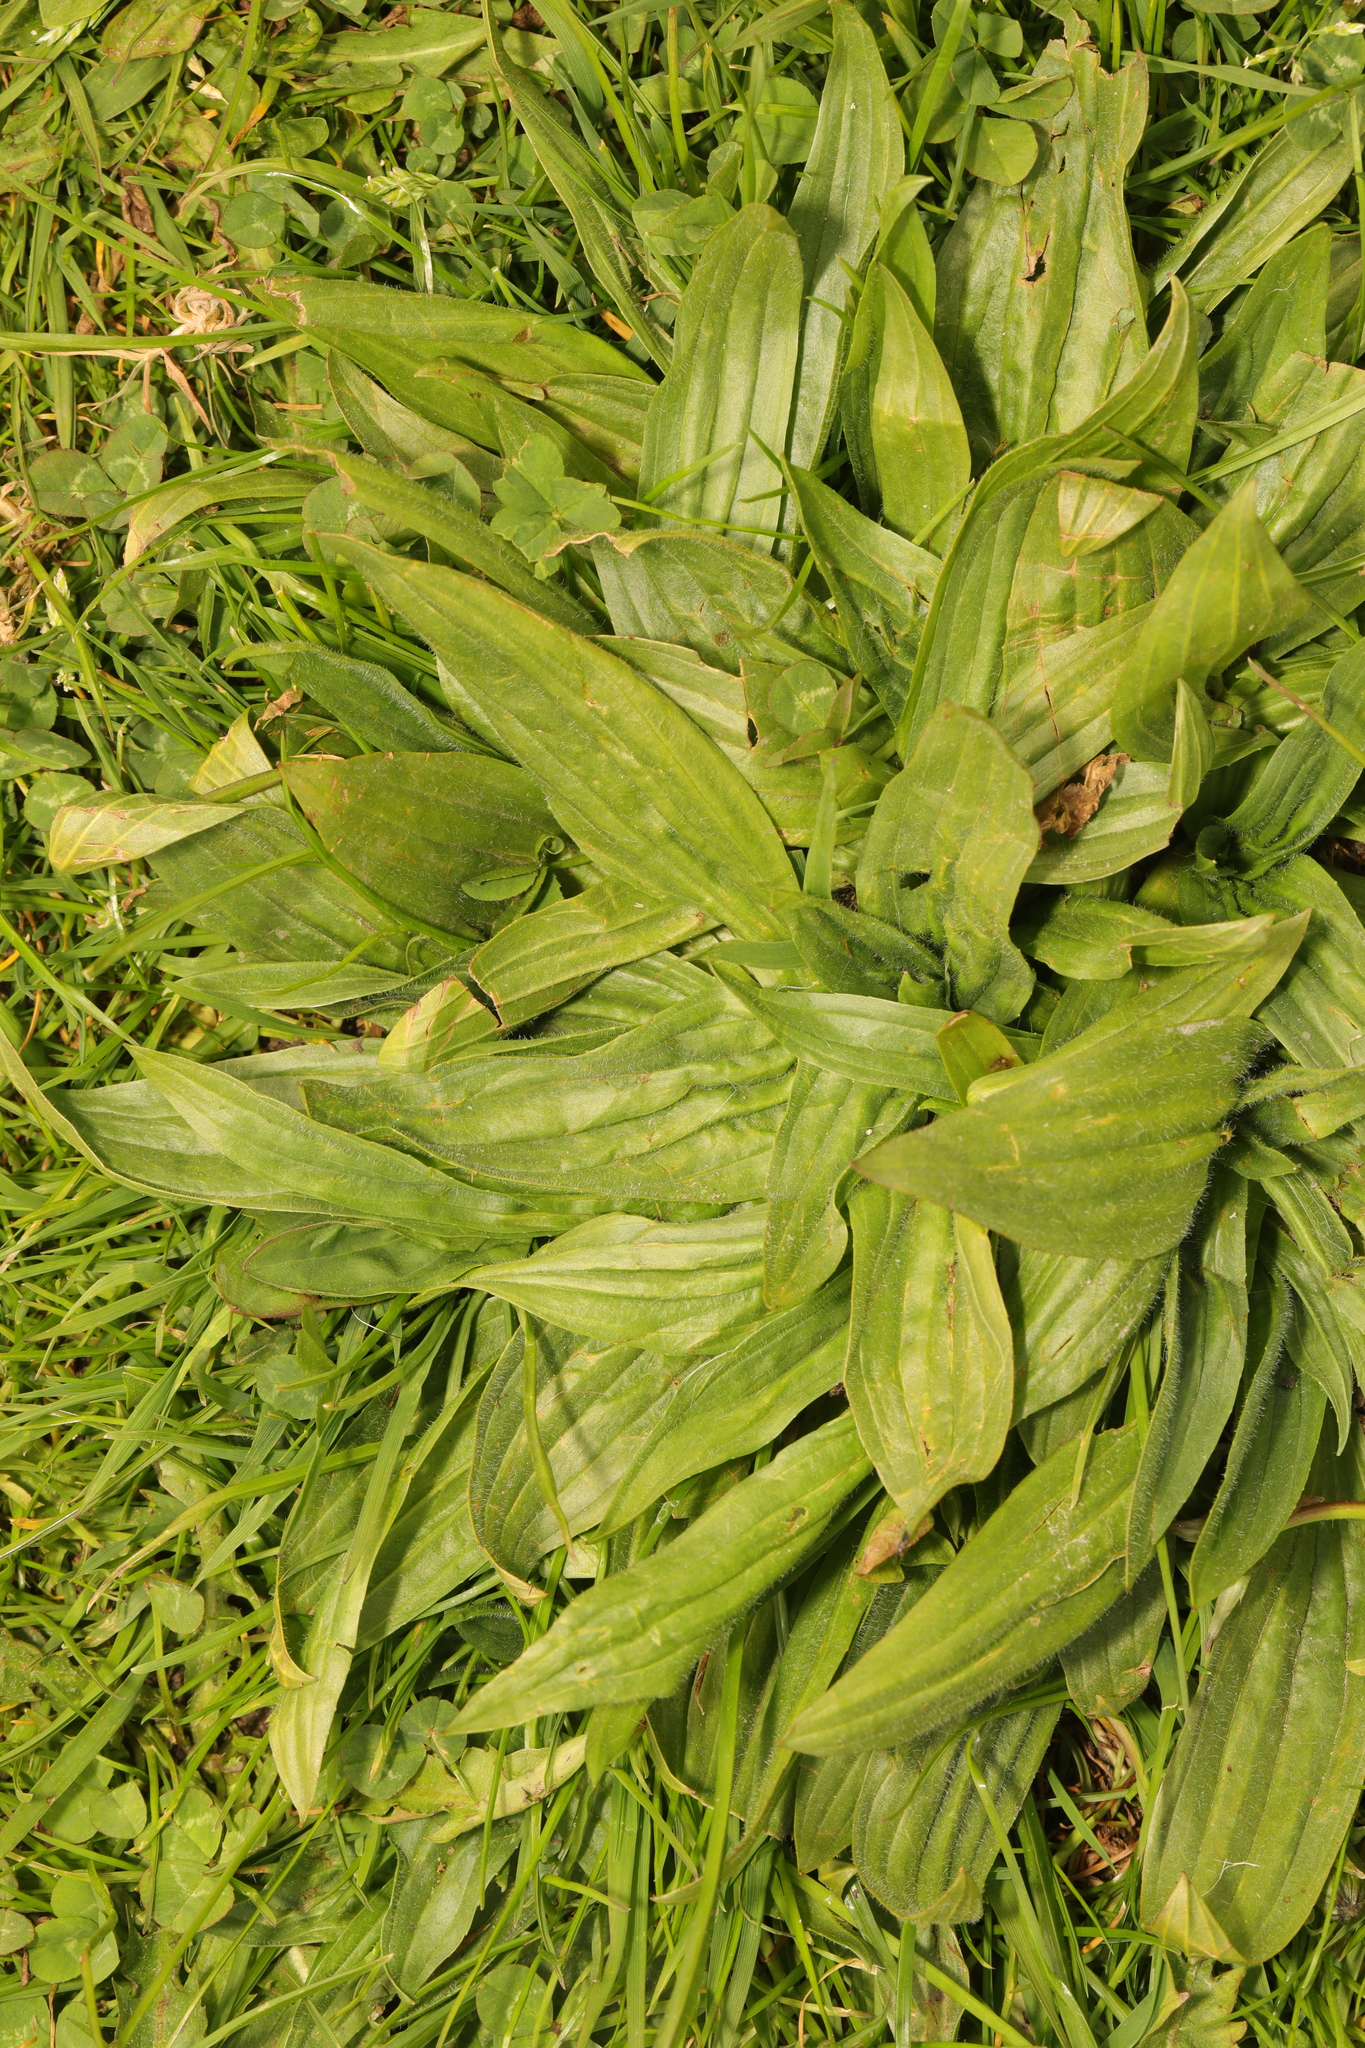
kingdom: Plantae
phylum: Tracheophyta
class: Magnoliopsida
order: Lamiales
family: Plantaginaceae
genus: Plantago
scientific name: Plantago lanceolata
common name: Ribwort plantain
